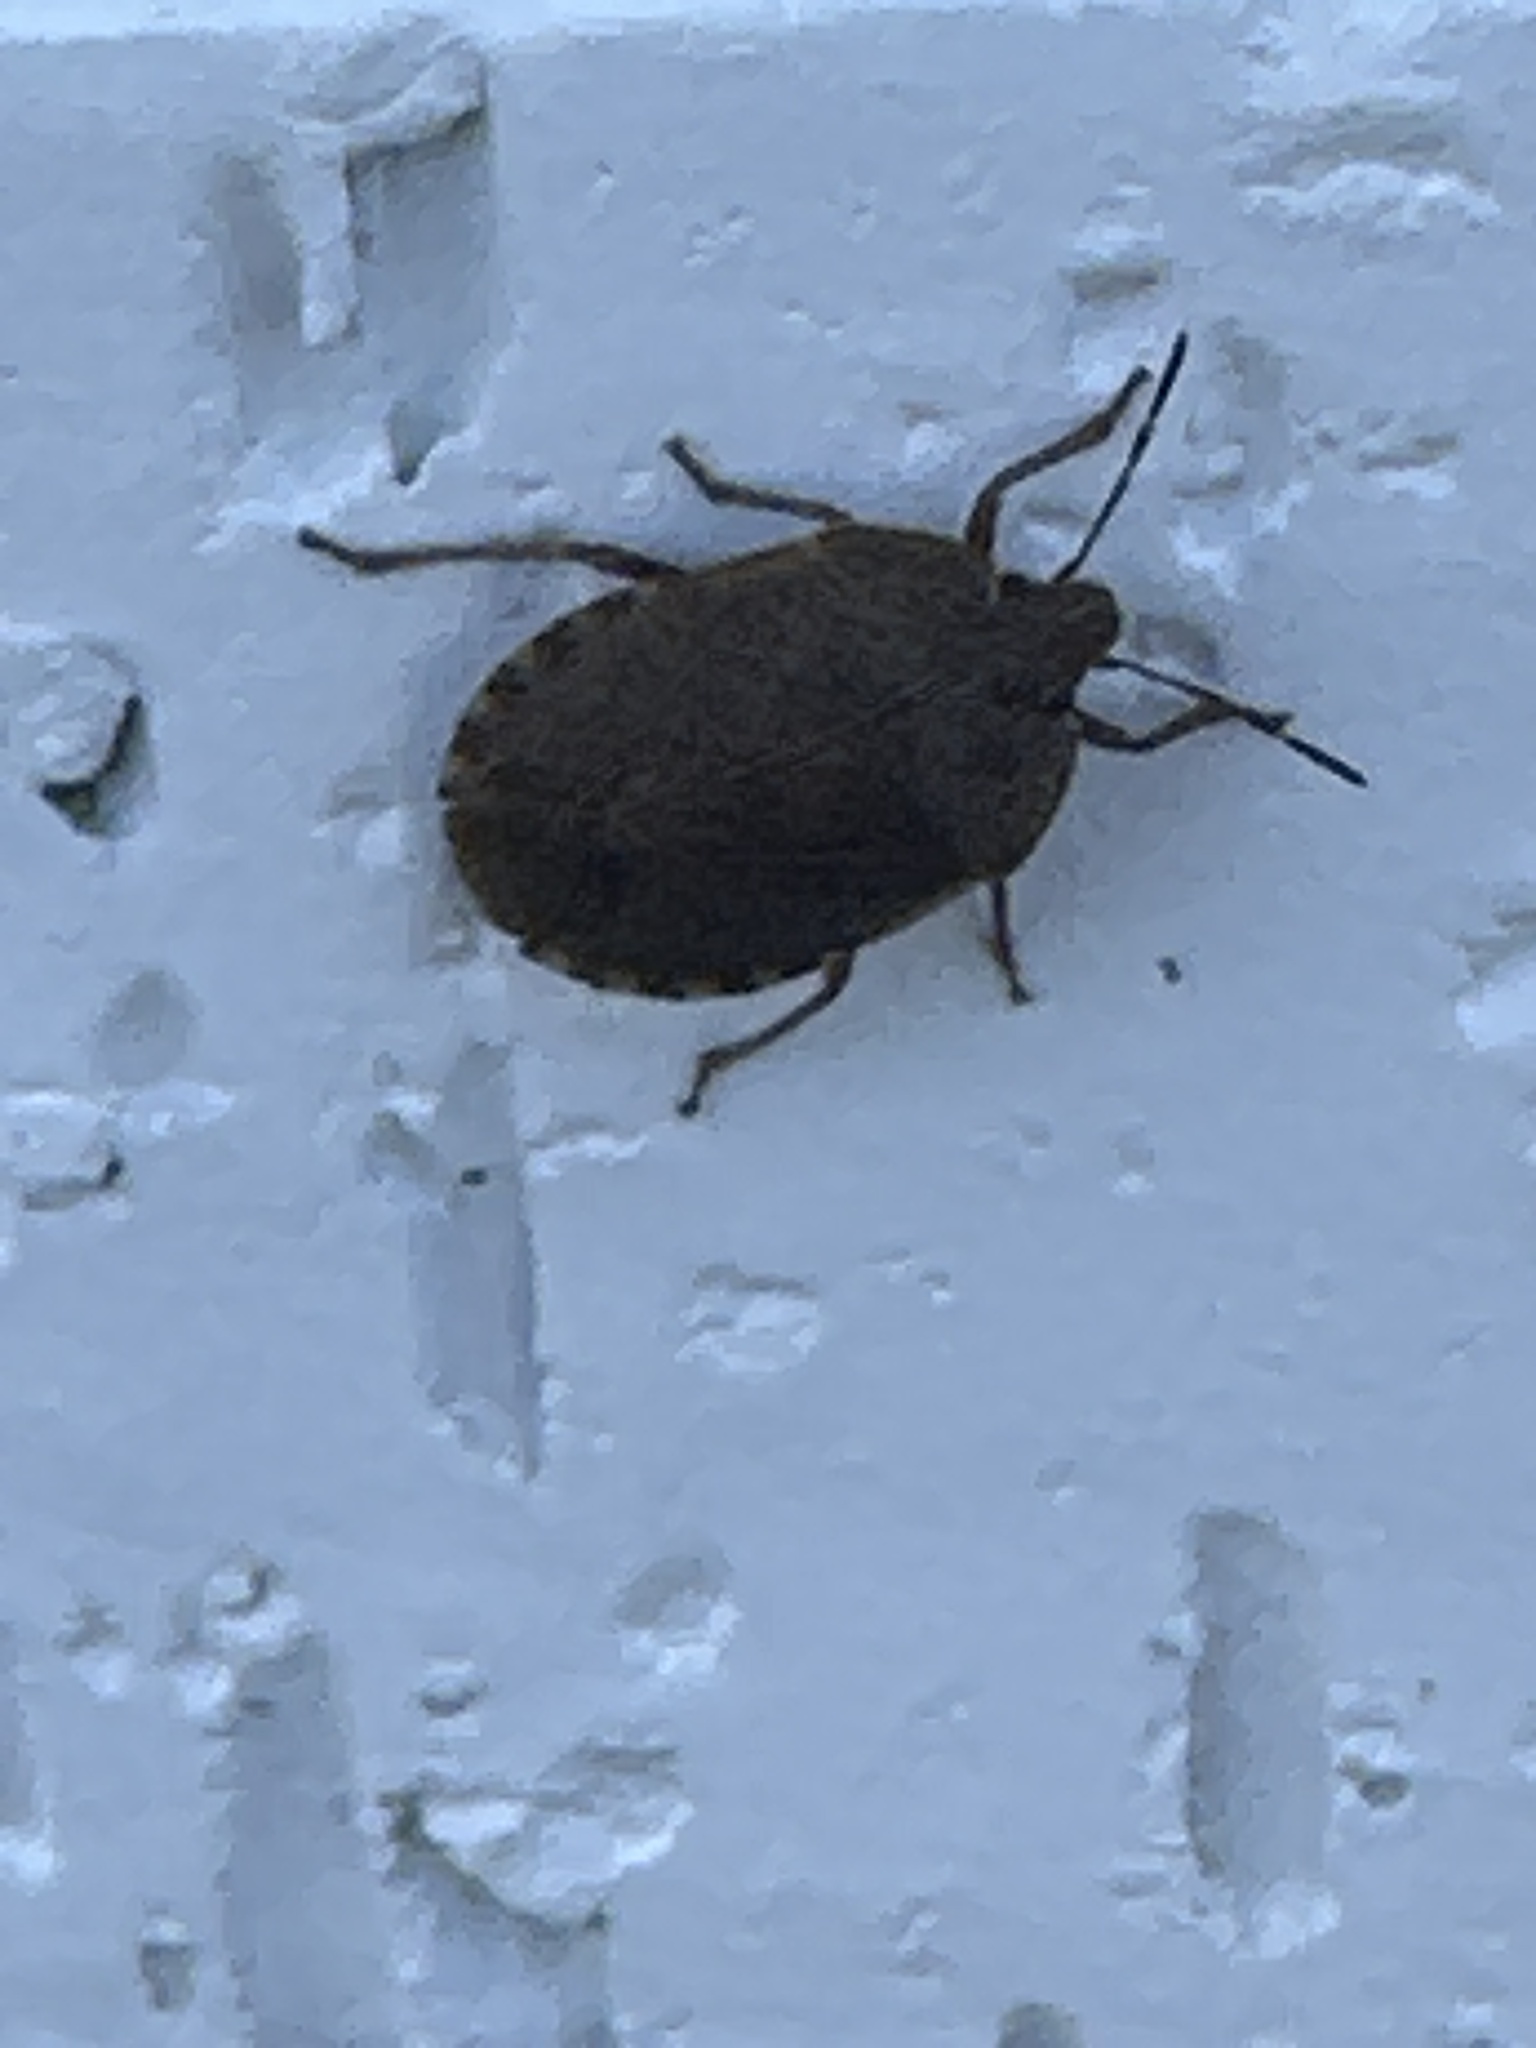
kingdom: Animalia
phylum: Arthropoda
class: Insecta
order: Hemiptera
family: Pentatomidae
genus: Menecles
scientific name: Menecles insertus
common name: Elf shoe stink bug
